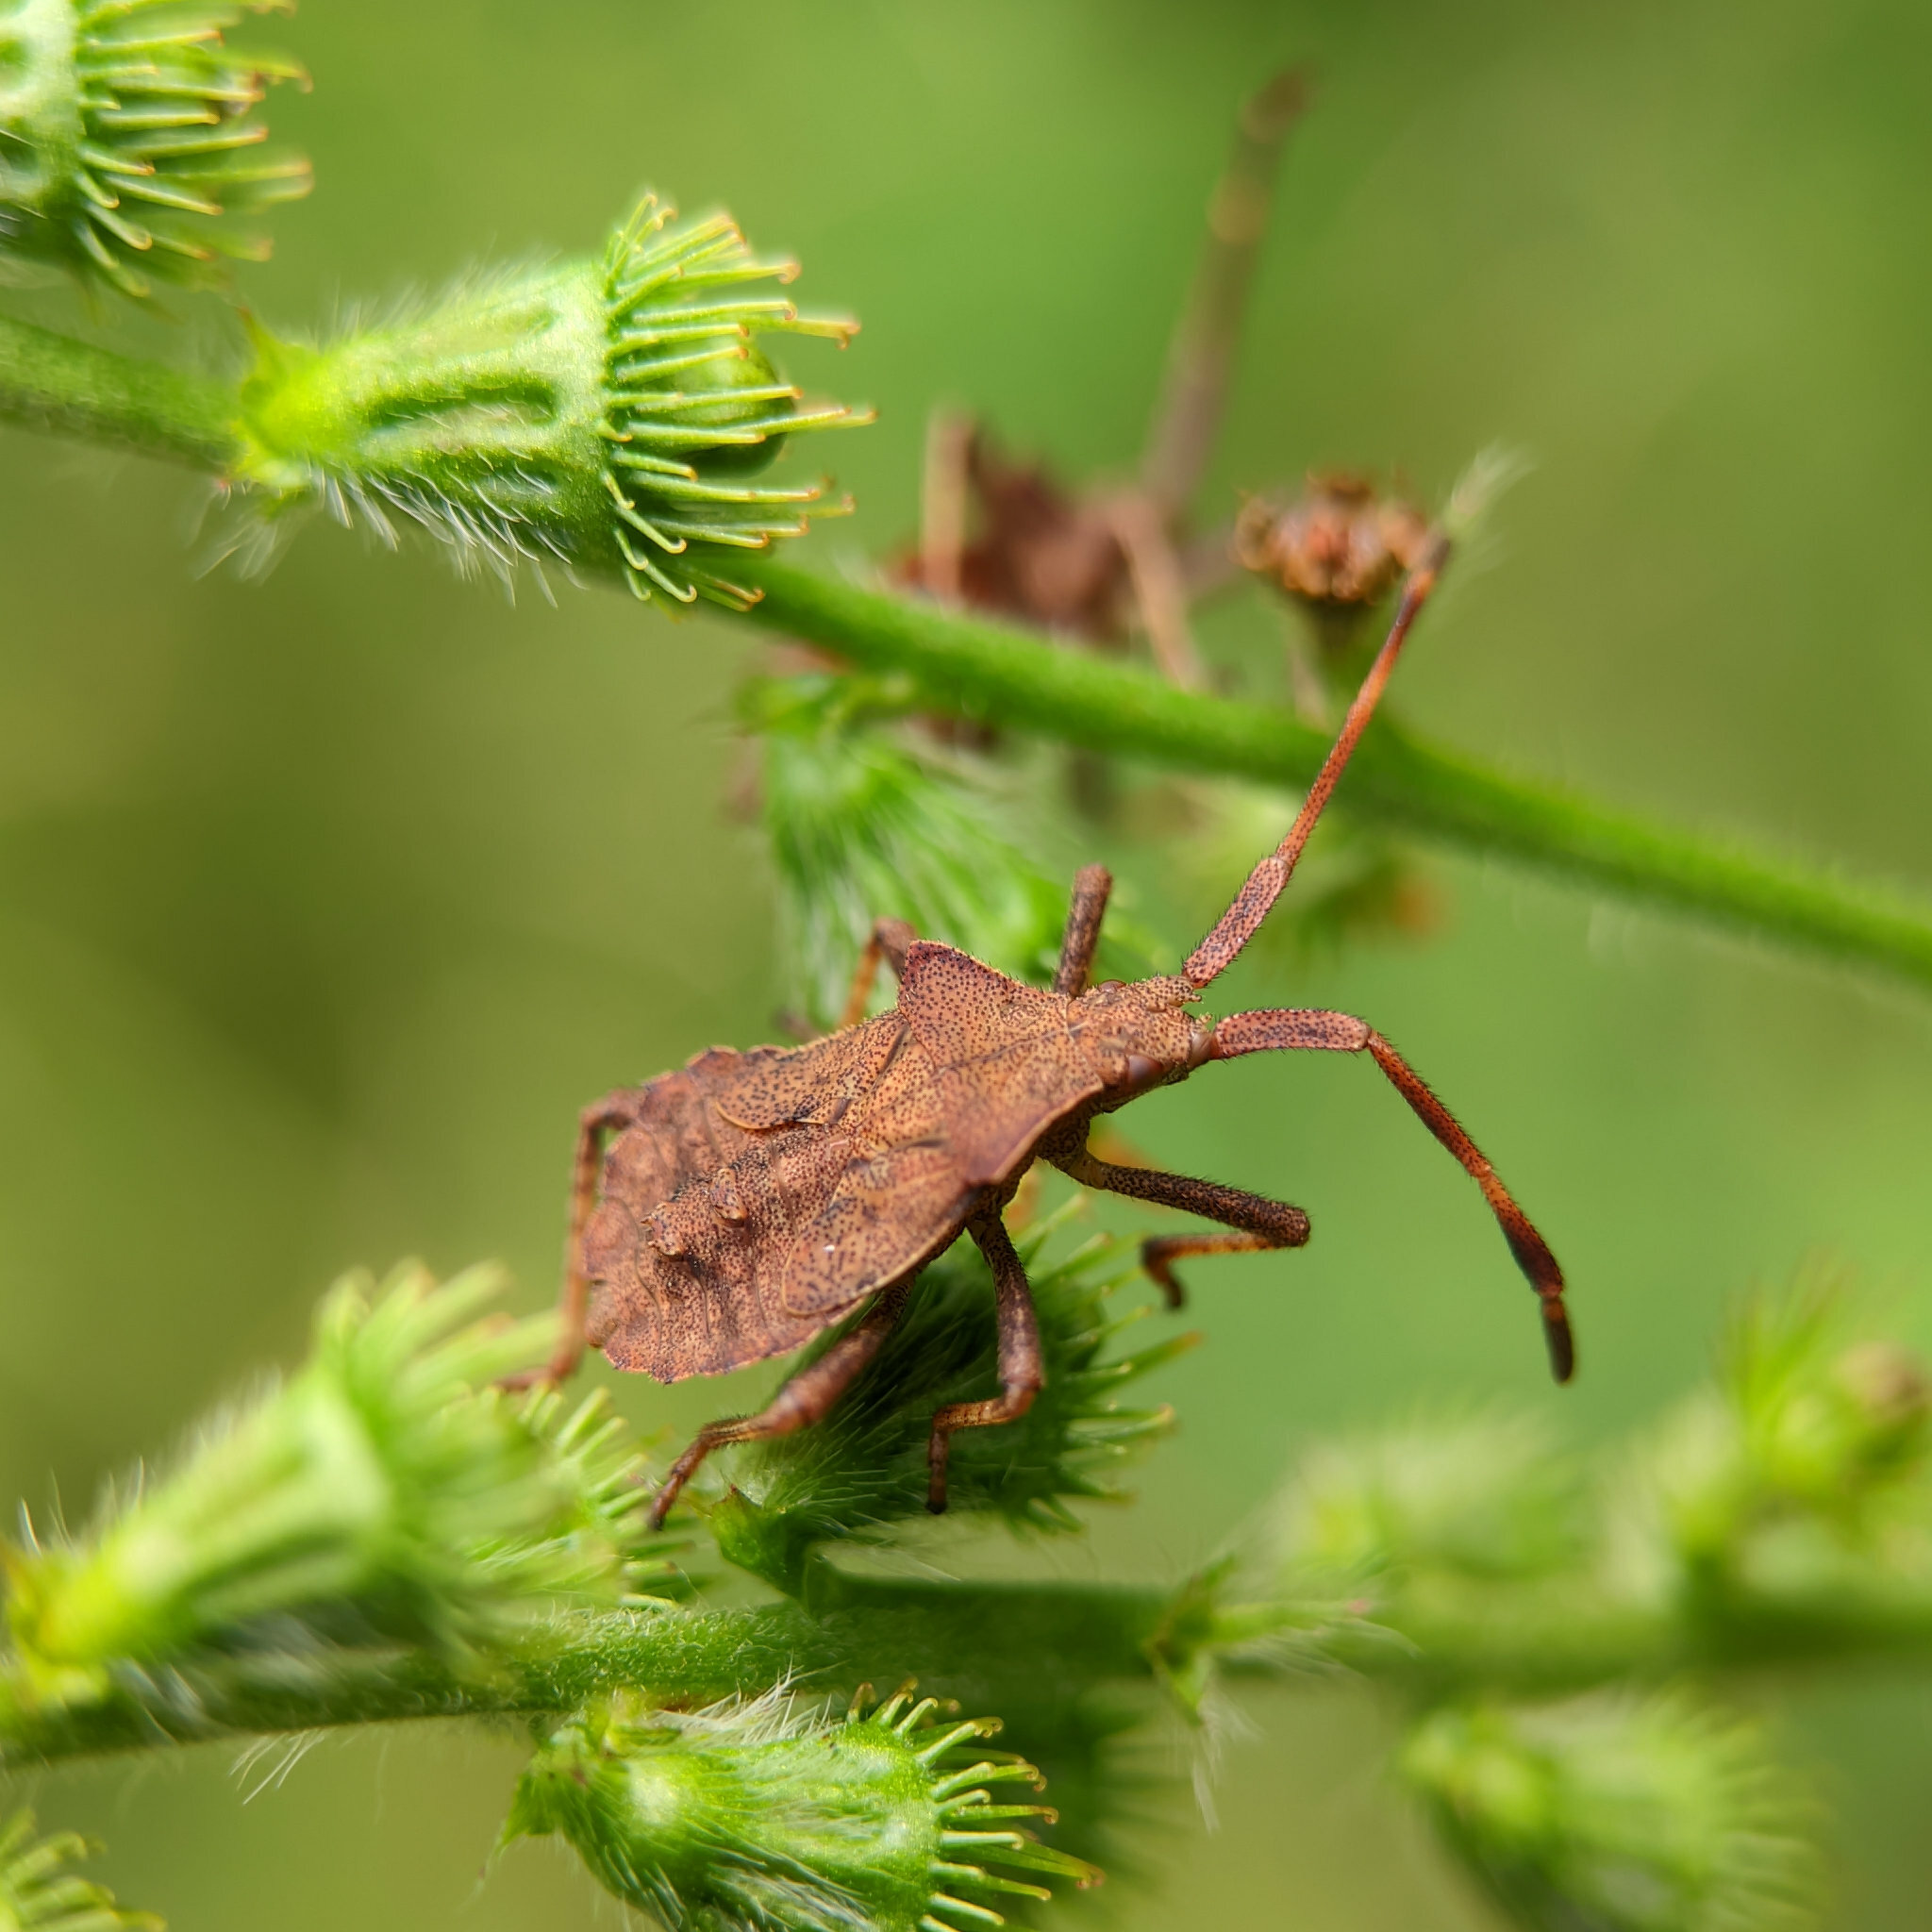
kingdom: Animalia
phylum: Arthropoda
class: Insecta
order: Hemiptera
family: Coreidae
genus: Coreus
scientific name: Coreus marginatus
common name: Dock bug
